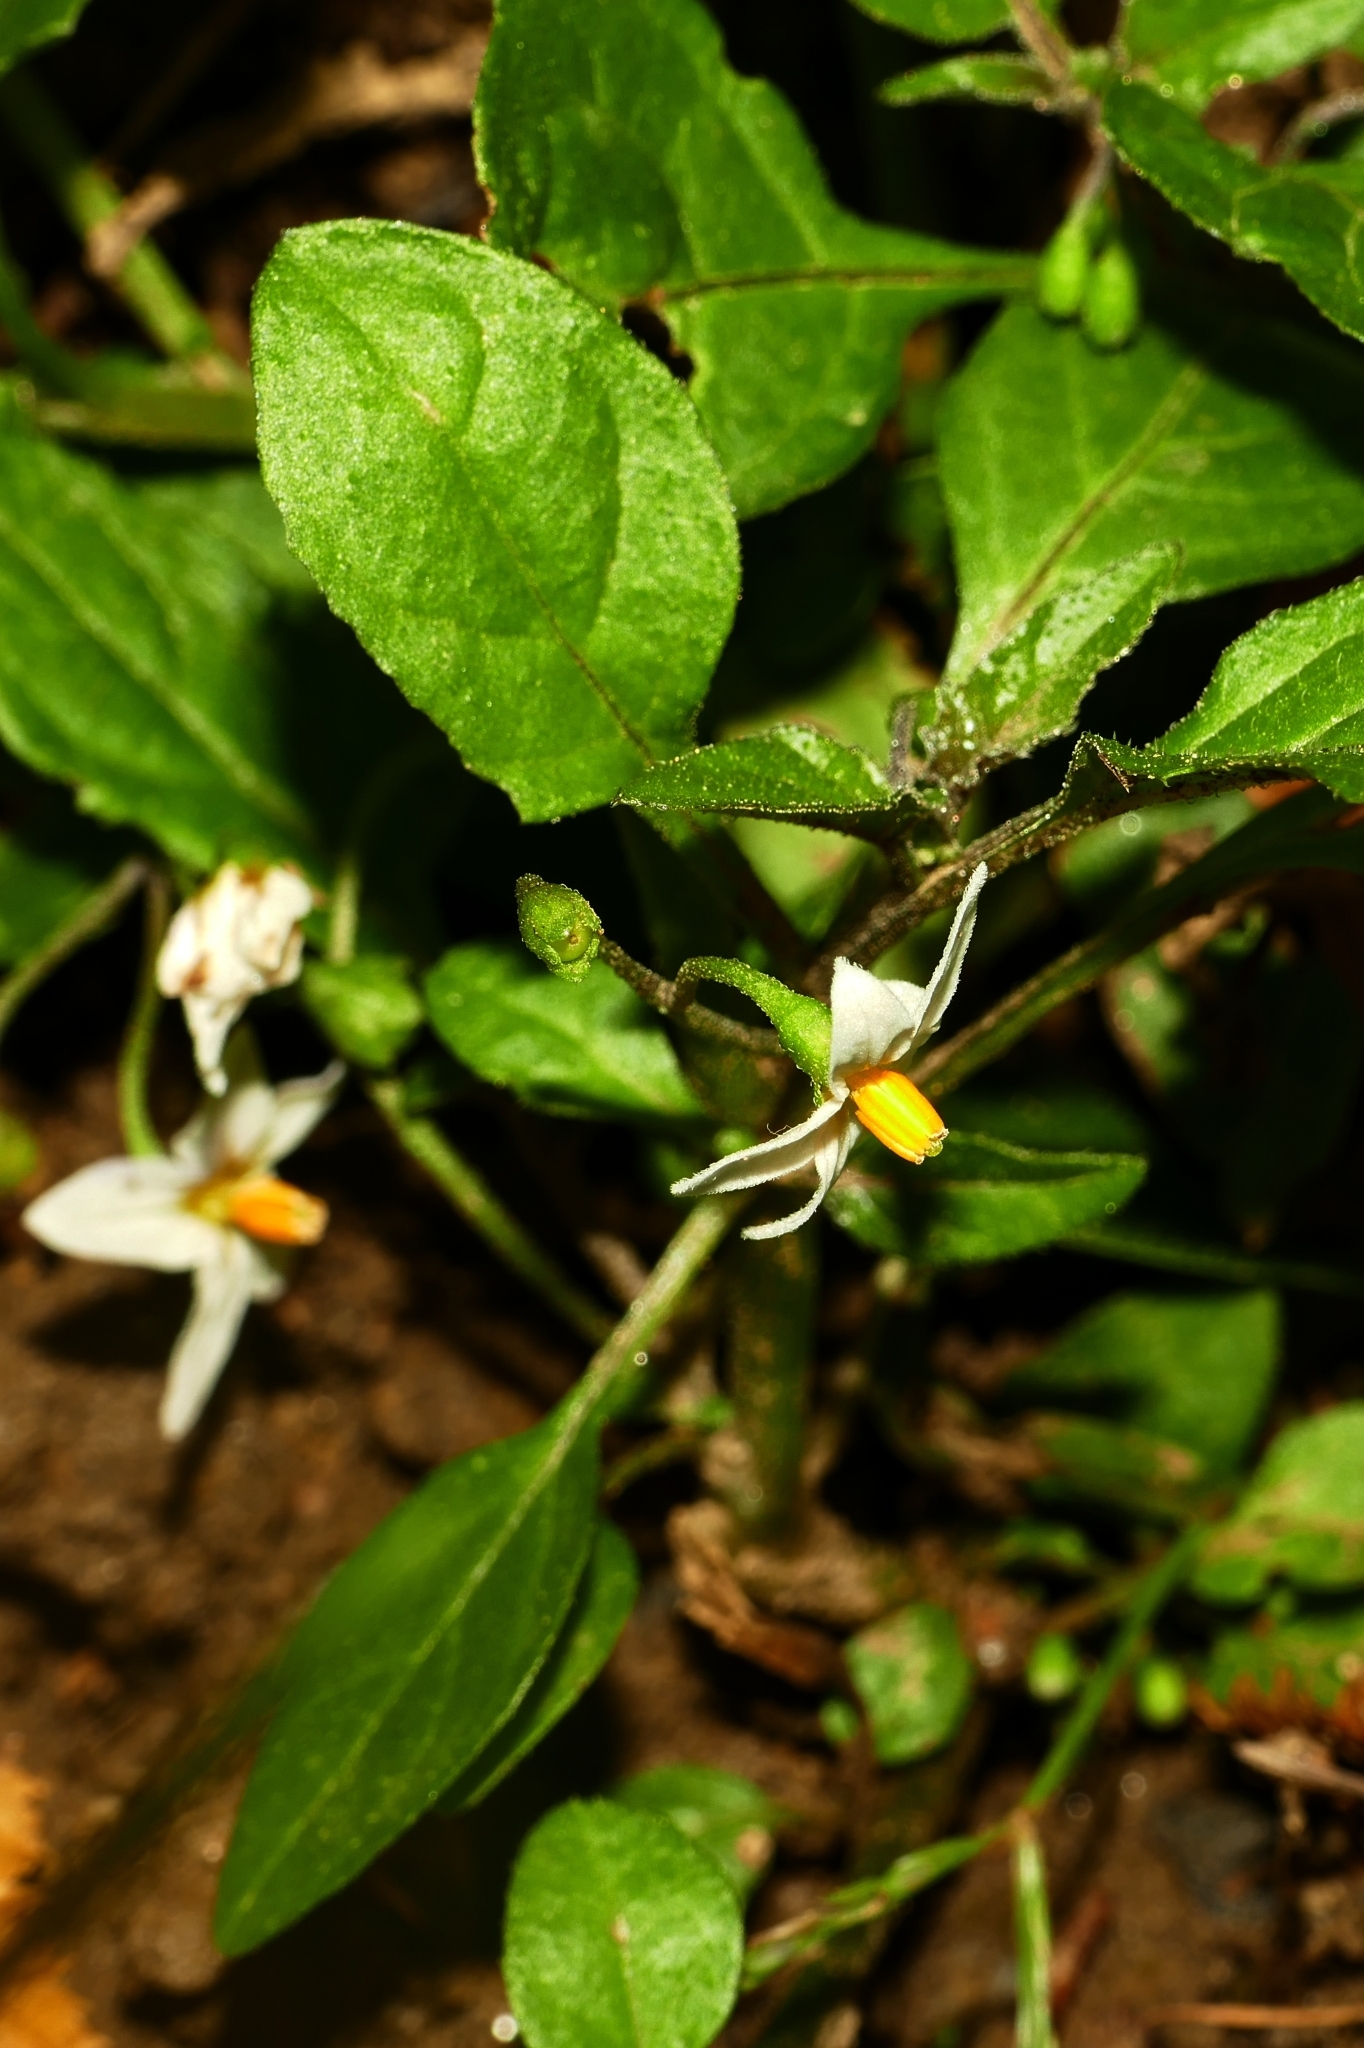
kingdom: Plantae
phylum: Tracheophyta
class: Magnoliopsida
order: Solanales
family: Solanaceae
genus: Solanum
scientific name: Solanum nigrum
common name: Black nightshade
